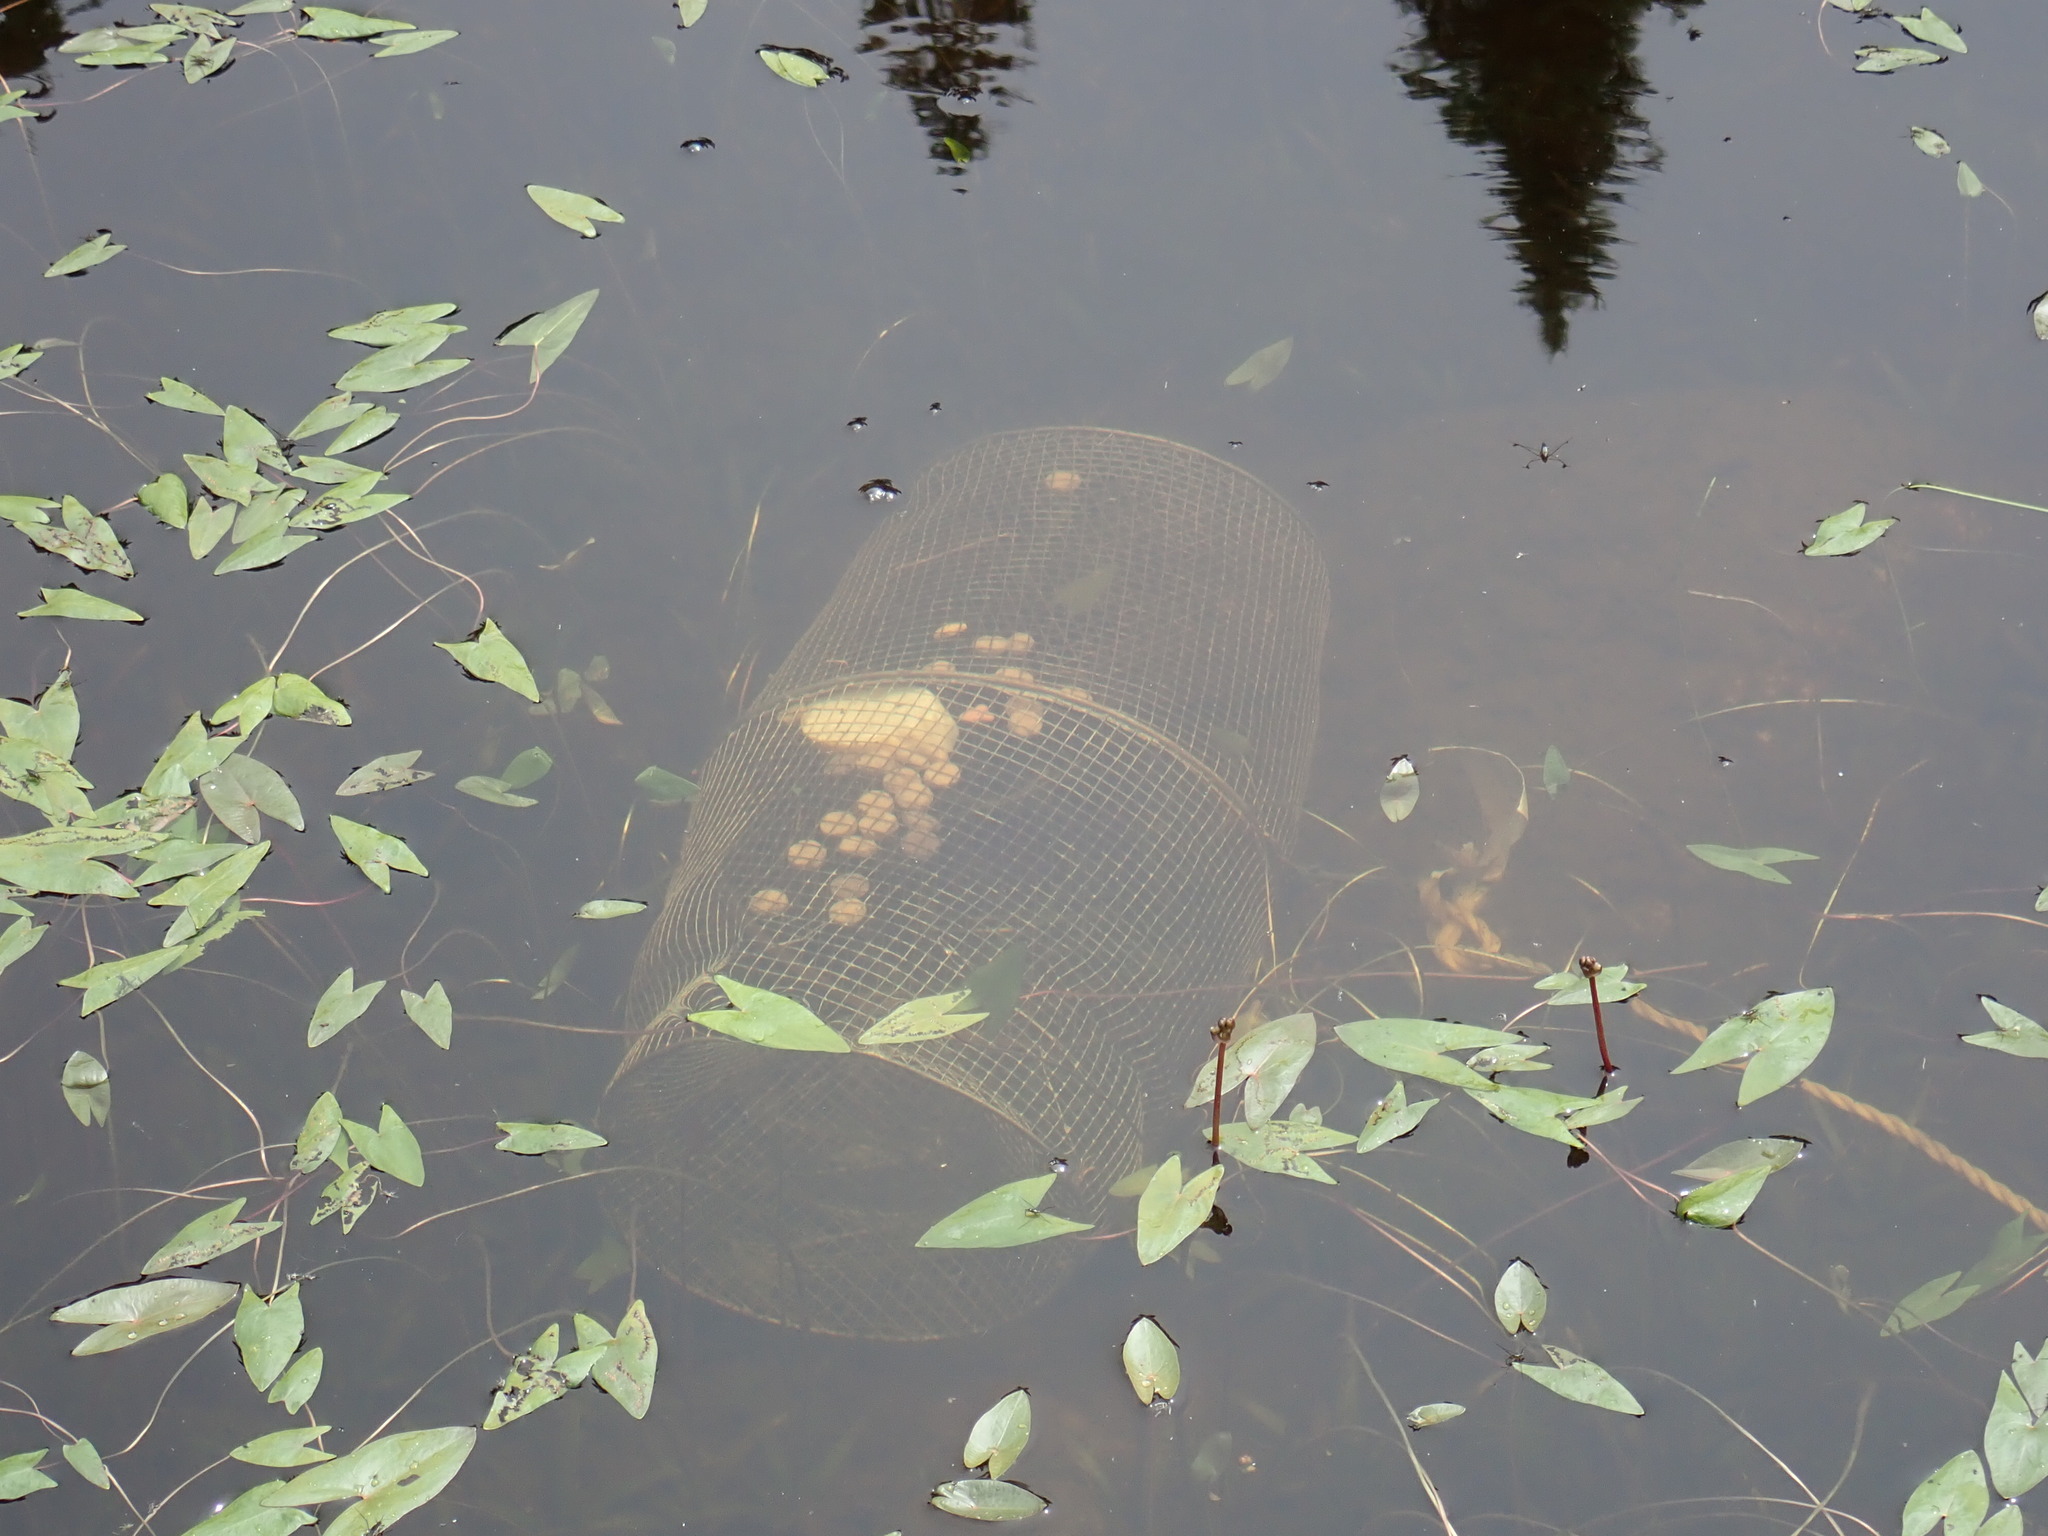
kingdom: Plantae
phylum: Tracheophyta
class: Liliopsida
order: Alismatales
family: Alismataceae
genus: Sagittaria
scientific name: Sagittaria cuneata
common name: Northern arrowhead
